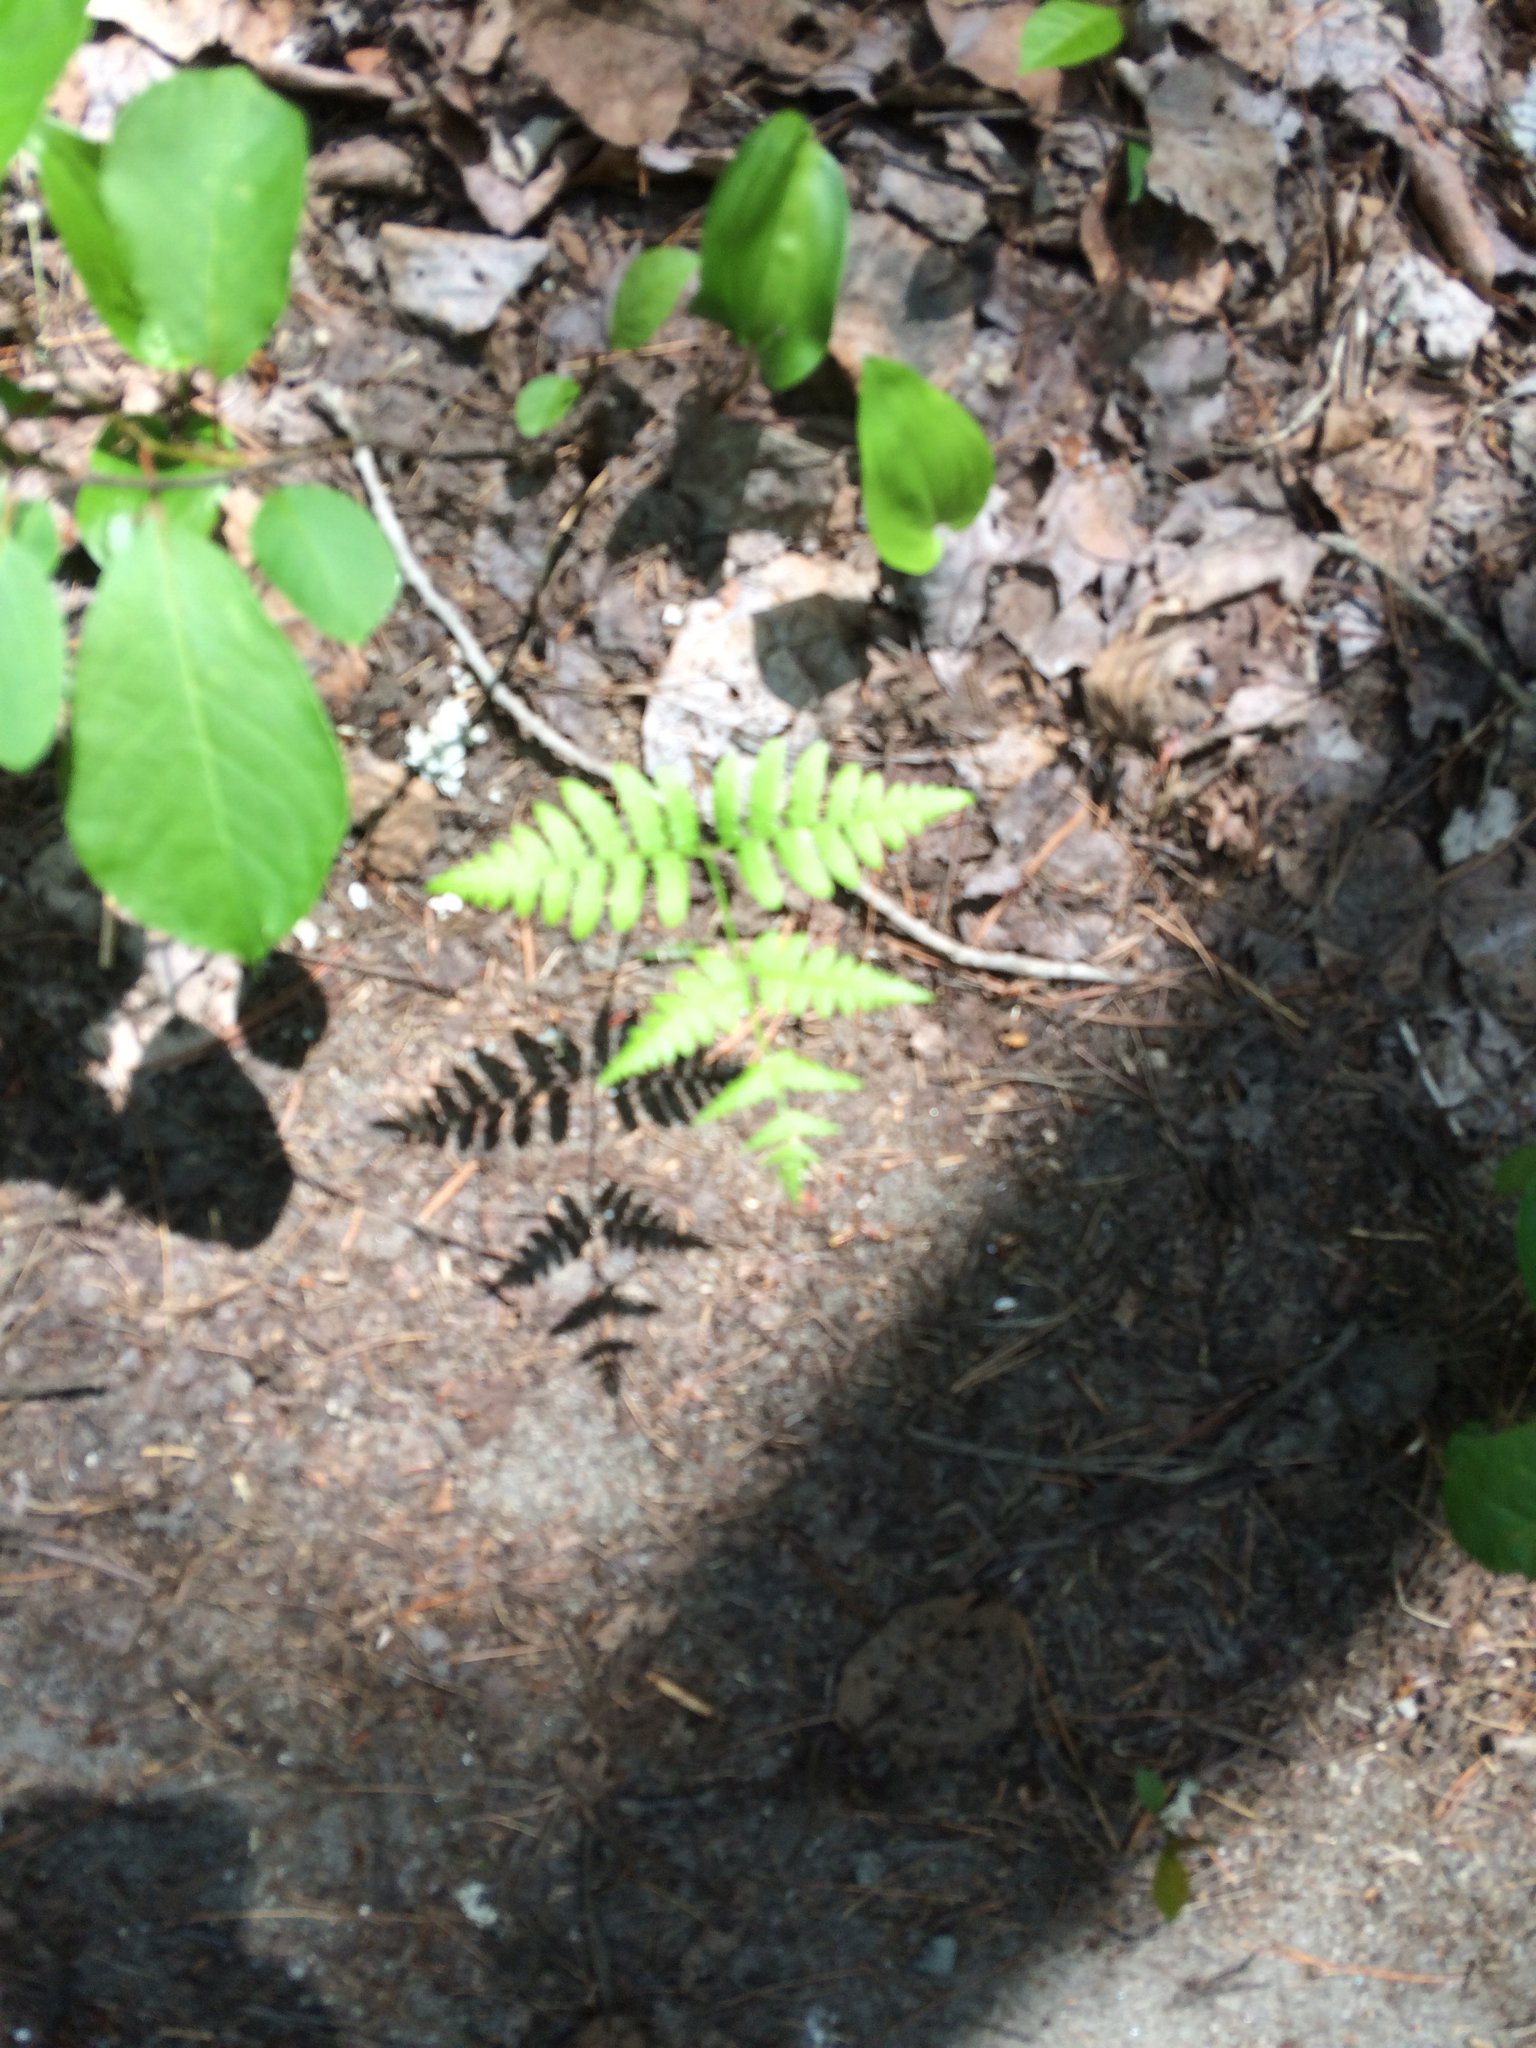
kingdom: Plantae
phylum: Tracheophyta
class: Polypodiopsida
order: Polypodiales
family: Cystopteridaceae
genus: Gymnocarpium
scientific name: Gymnocarpium dryopteris
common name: Oak fern
